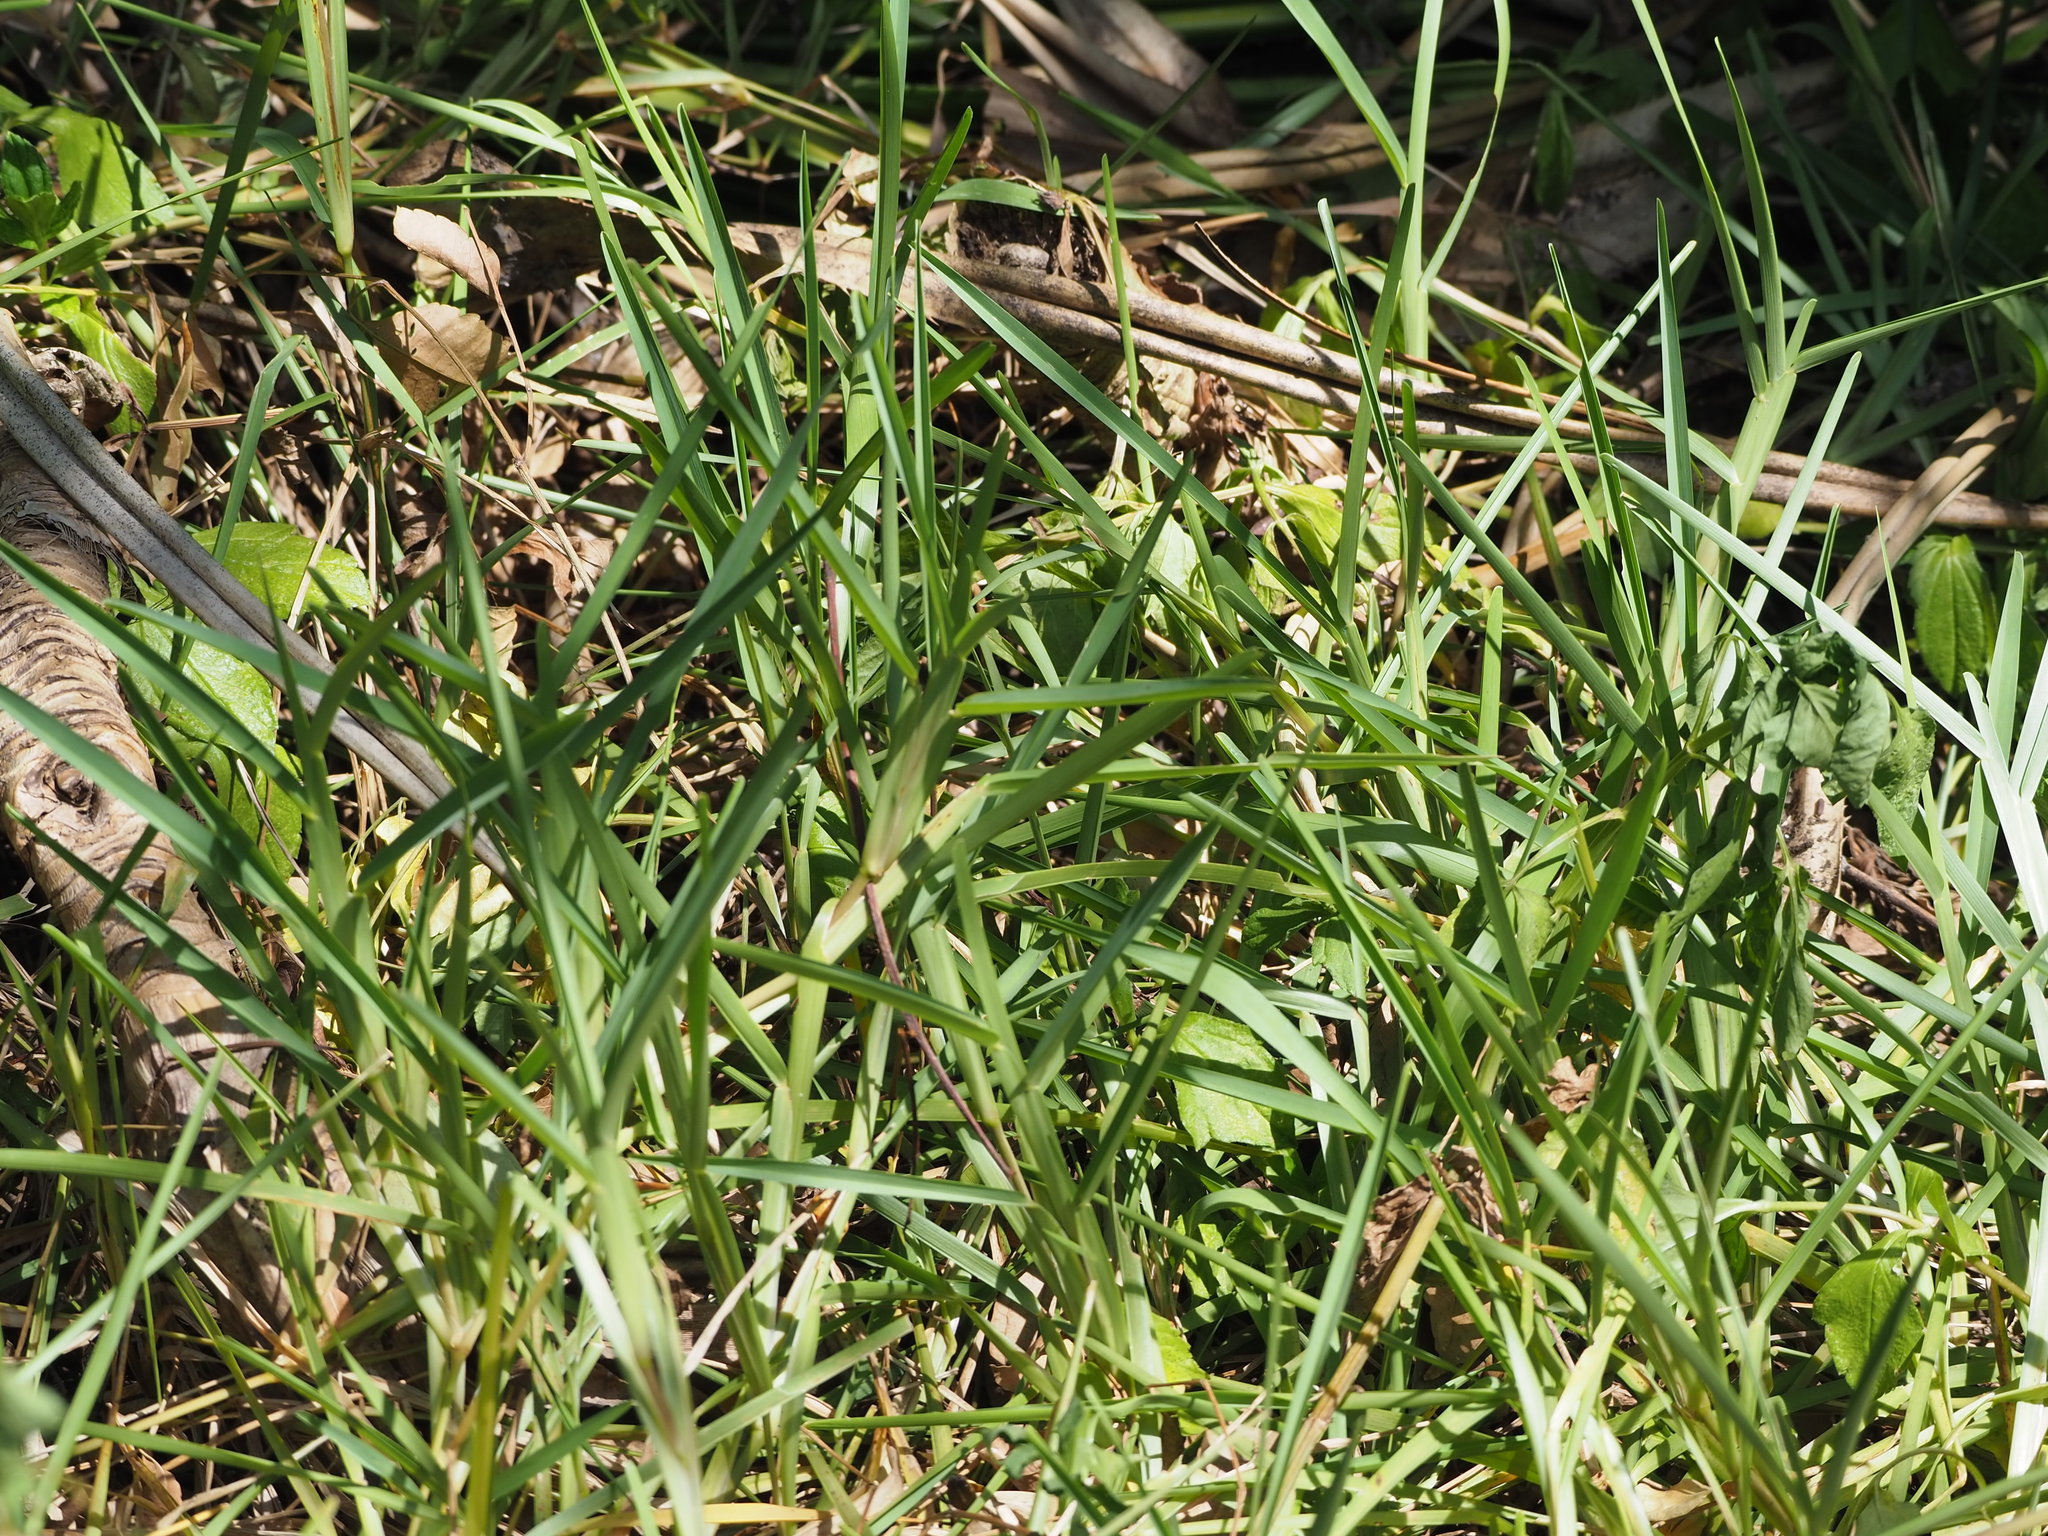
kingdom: Plantae
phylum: Tracheophyta
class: Liliopsida
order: Poales
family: Poaceae
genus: Stenotaphrum
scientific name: Stenotaphrum secundatum
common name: St. augustine grass
